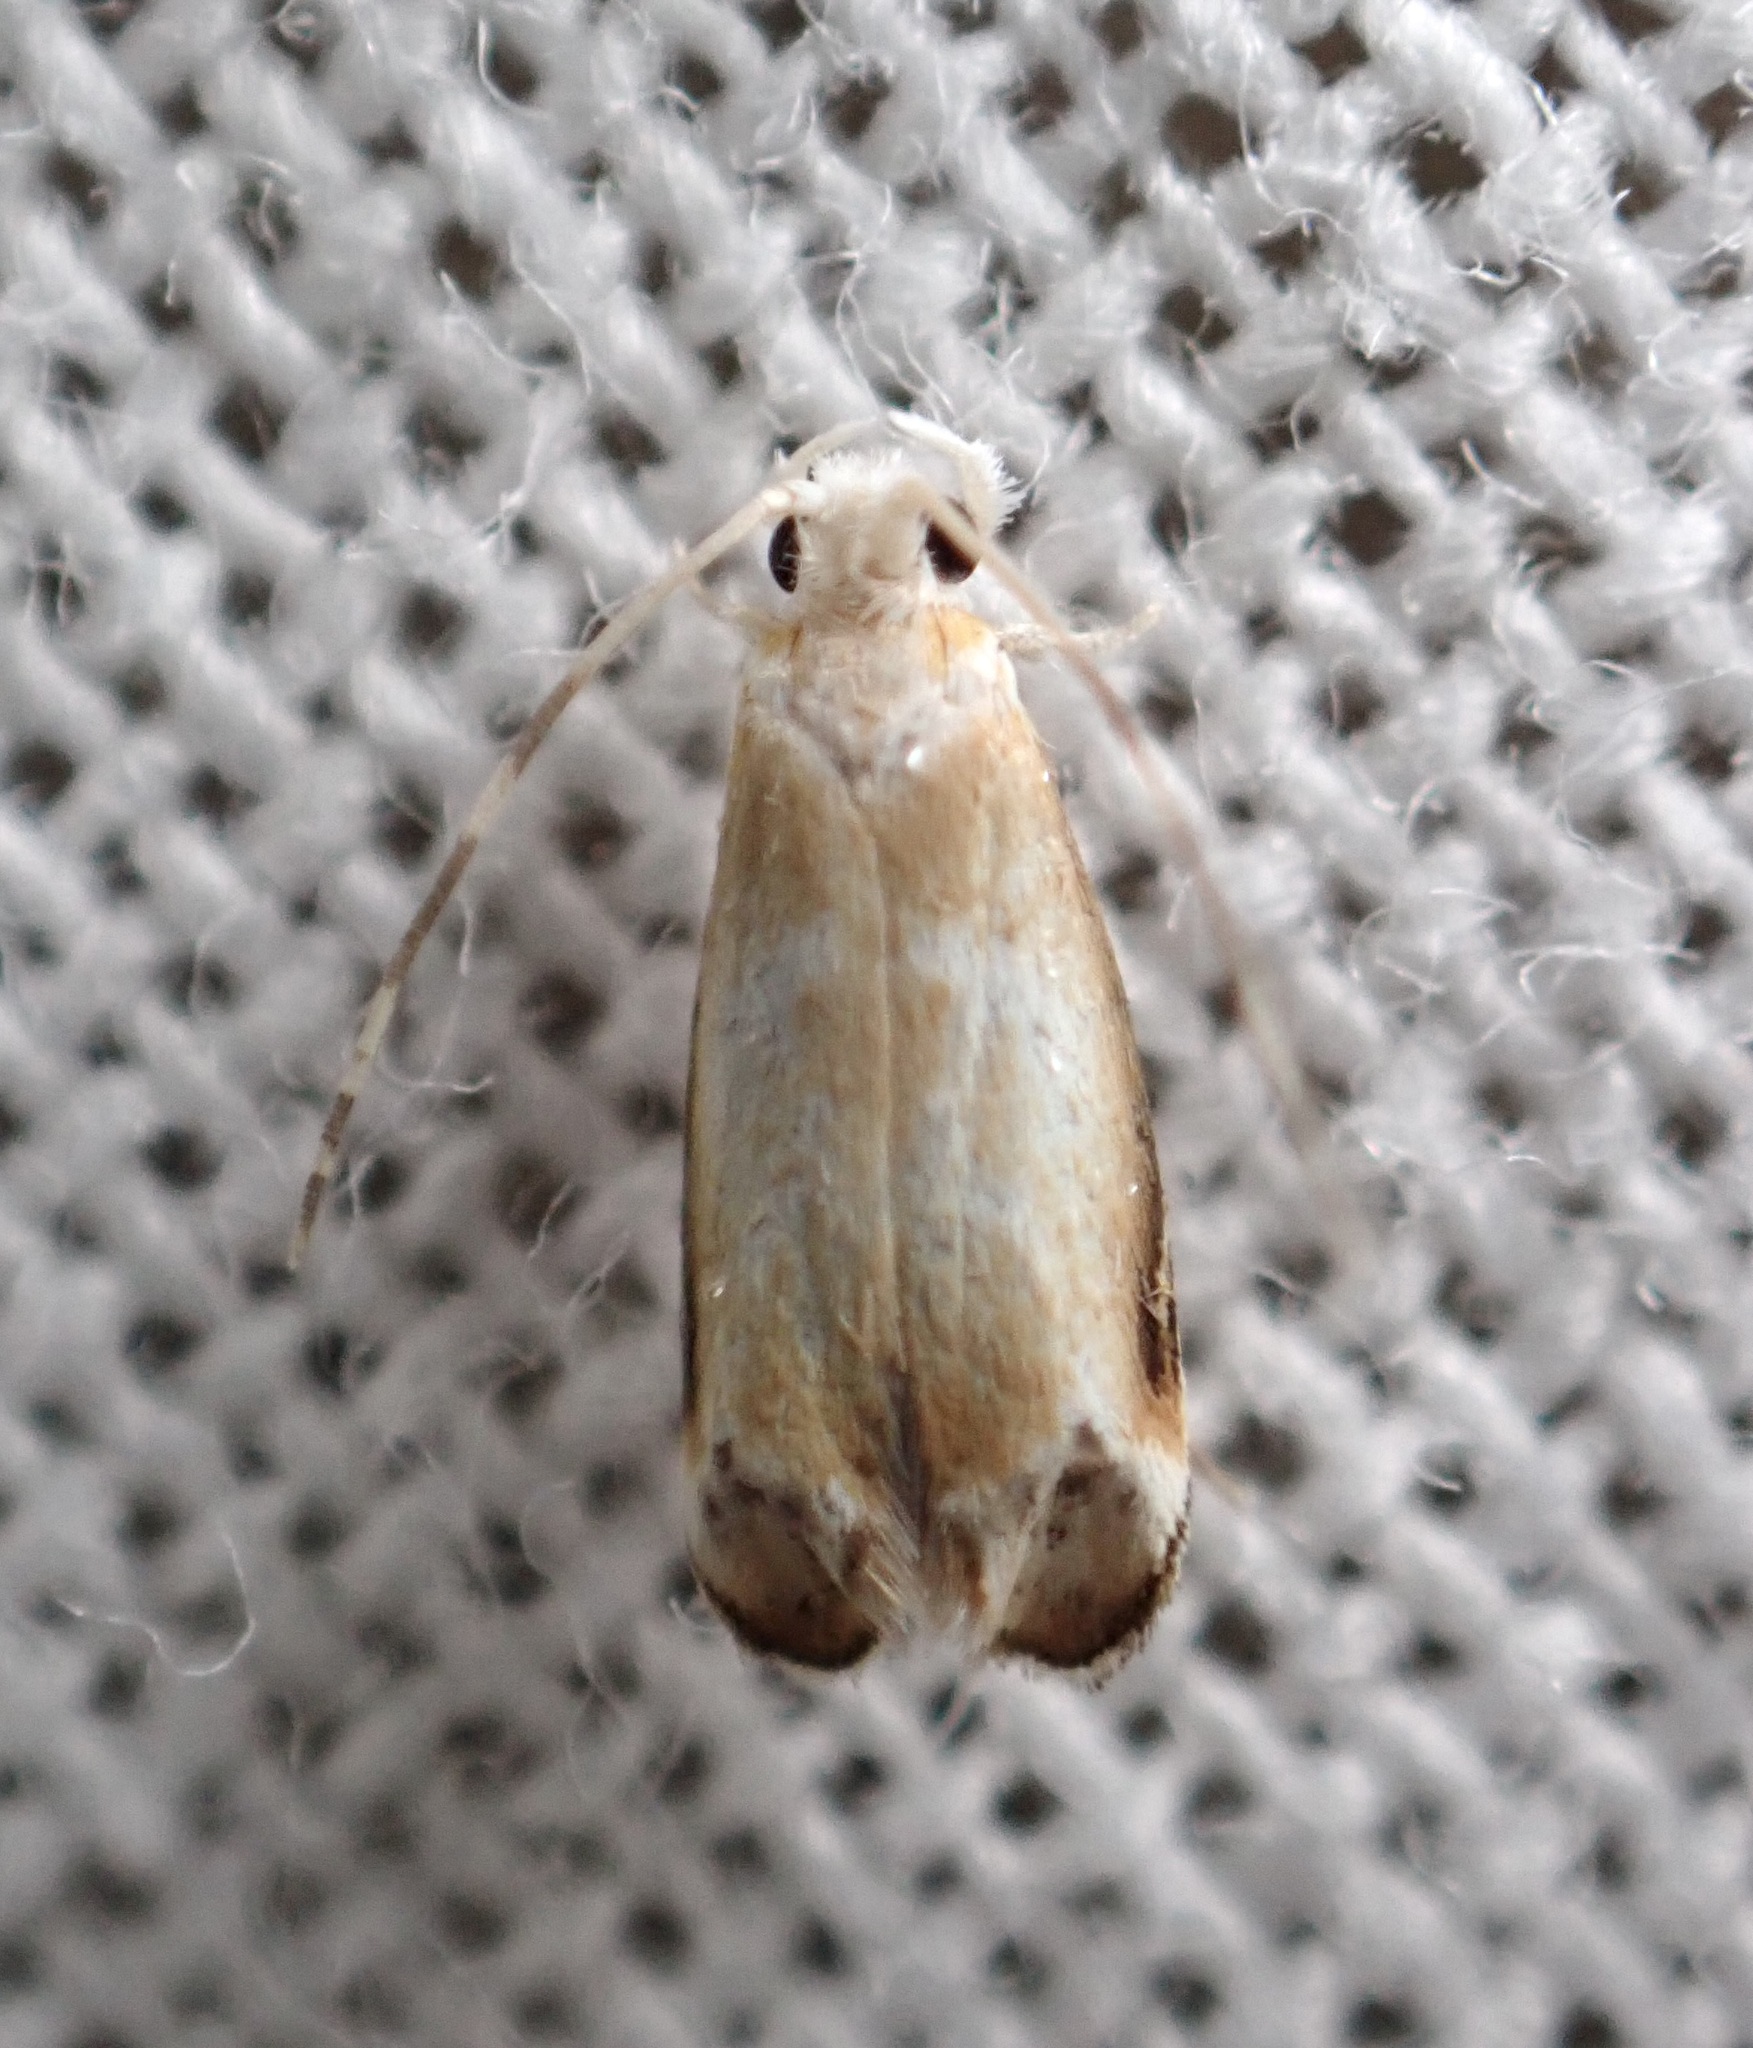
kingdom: Animalia
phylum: Arthropoda
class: Insecta
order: Lepidoptera
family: Dryadaulidae
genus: Dryadaula
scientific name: Dryadaula terpsichorella
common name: Dancing moth
